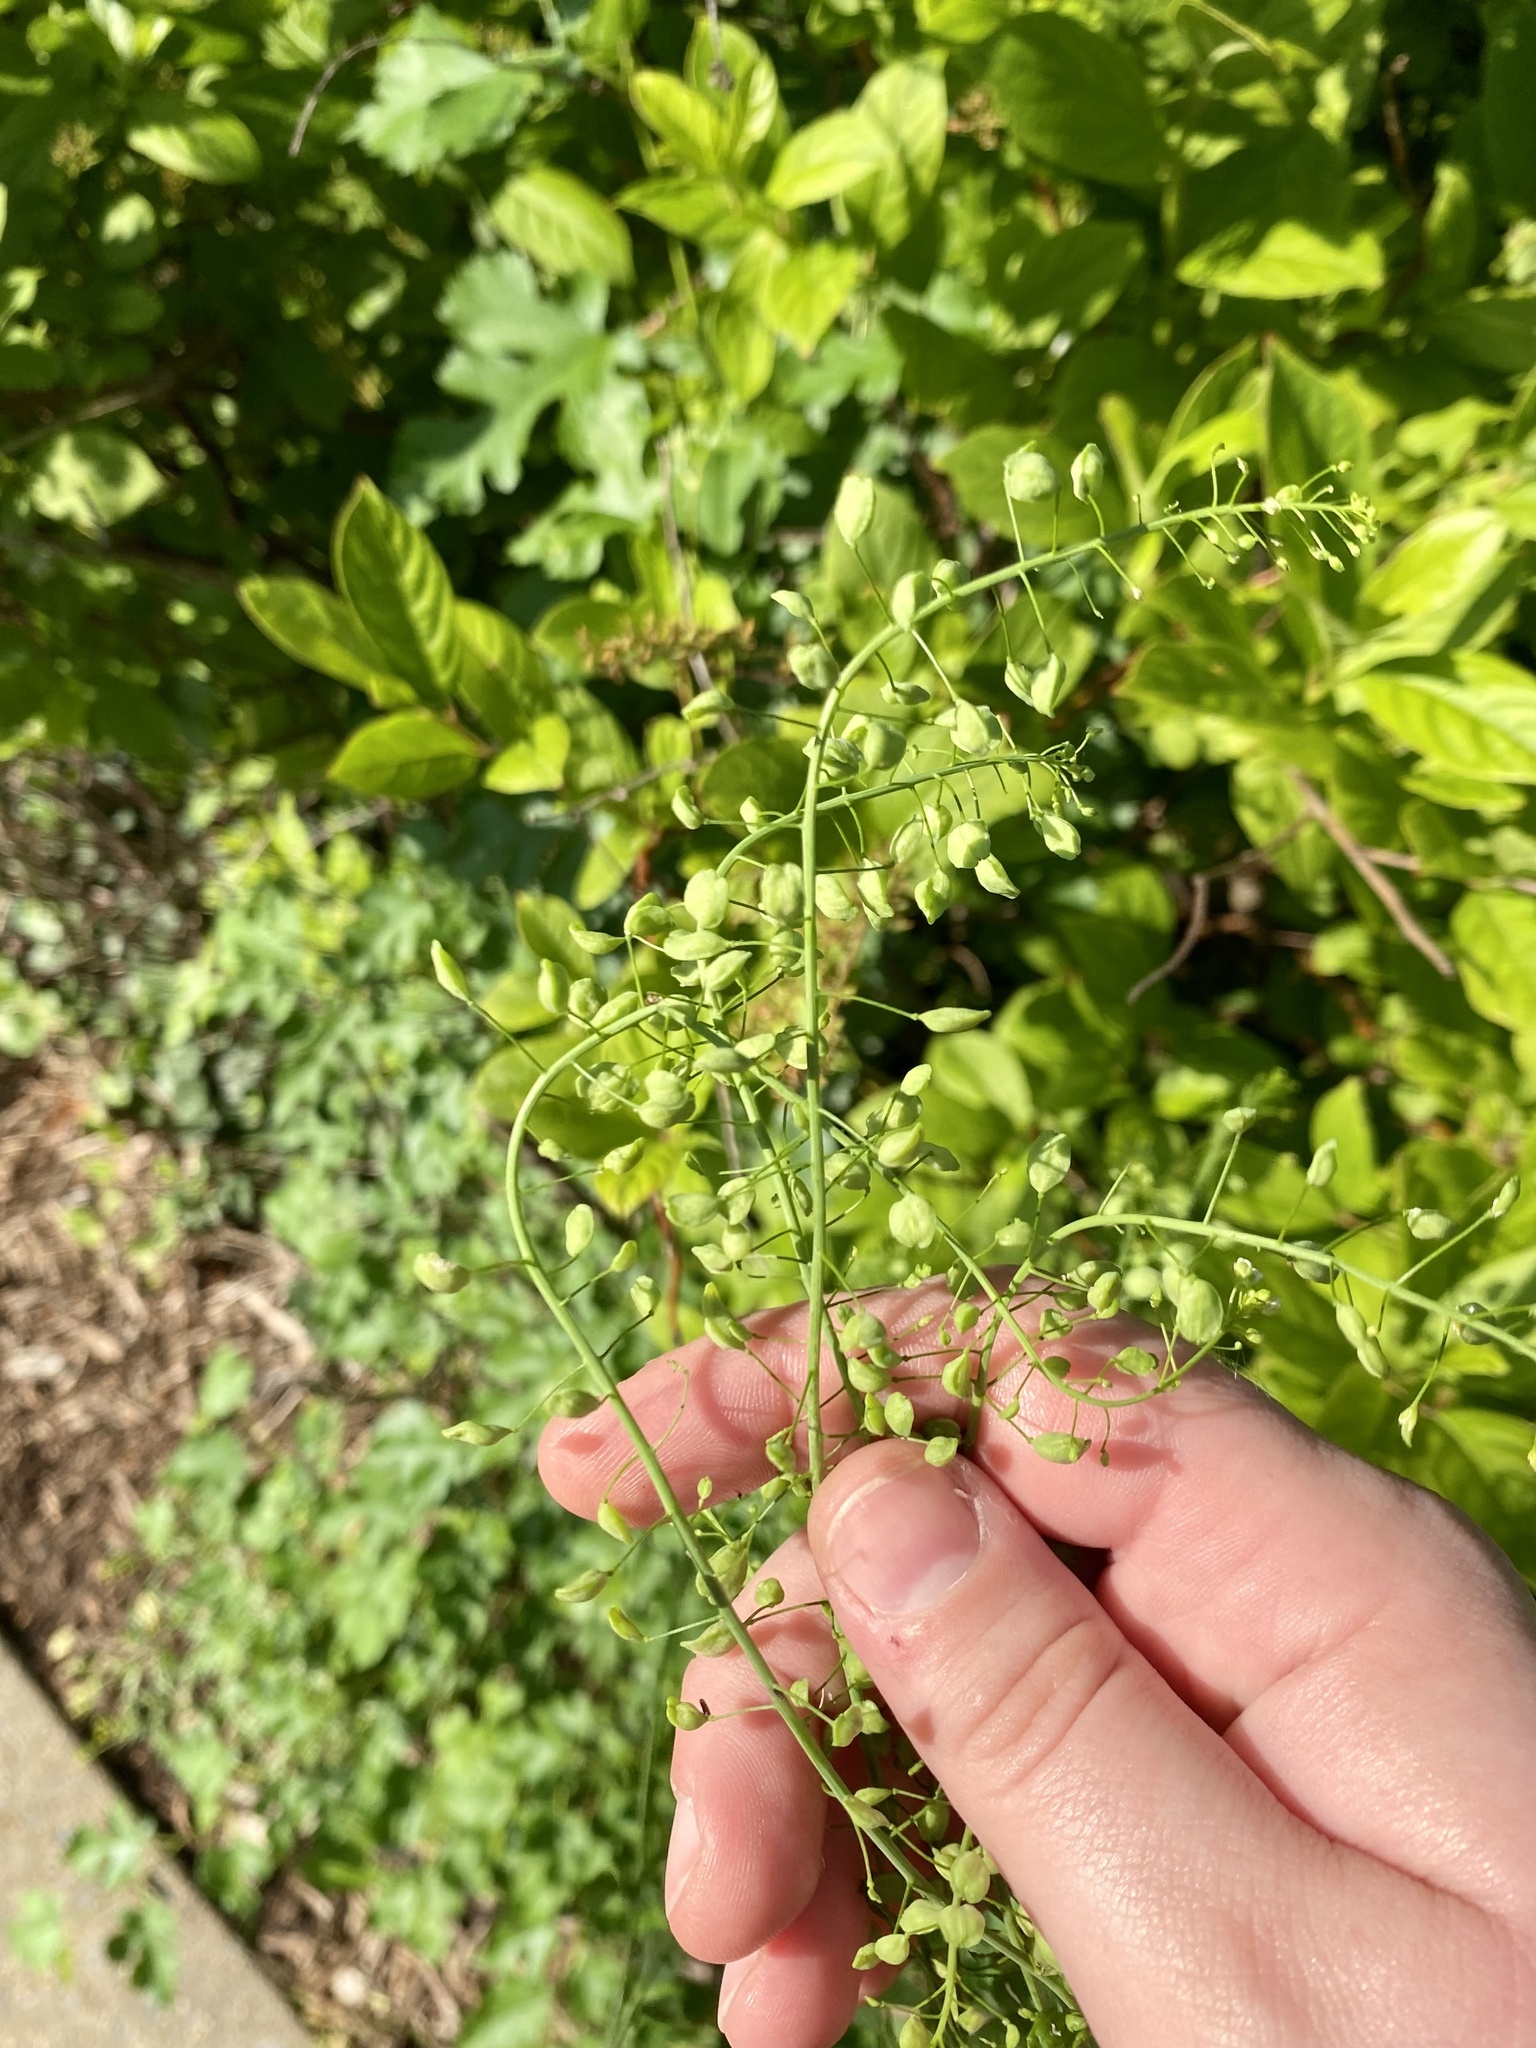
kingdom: Plantae
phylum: Tracheophyta
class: Magnoliopsida
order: Brassicales
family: Brassicaceae
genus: Mummenhoffia
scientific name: Mummenhoffia alliacea
